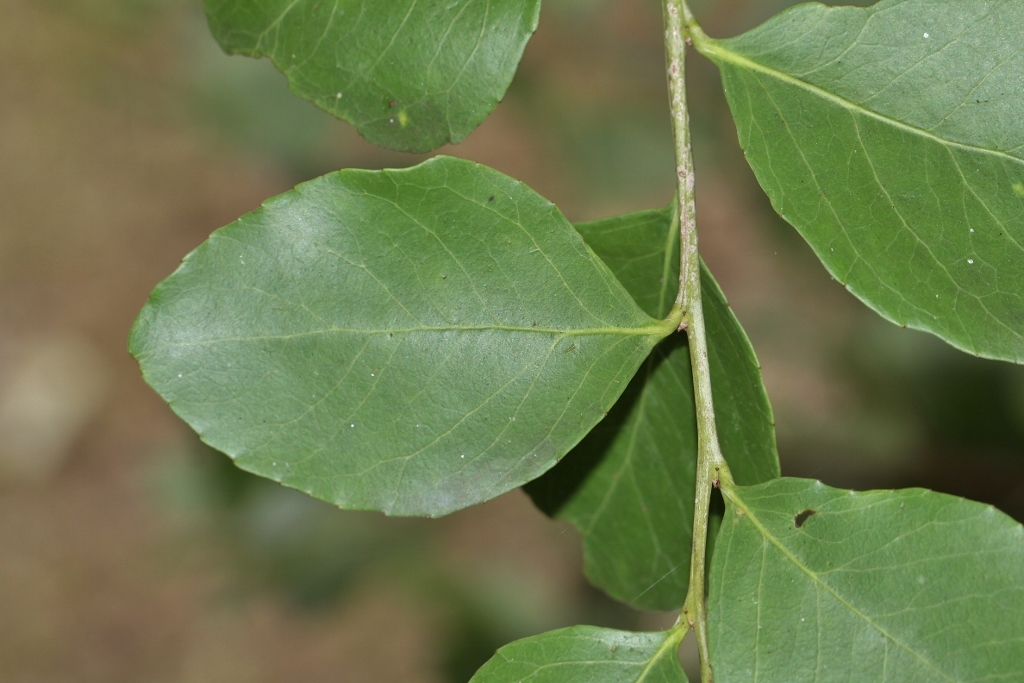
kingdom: Plantae
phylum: Tracheophyta
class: Magnoliopsida
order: Celastrales
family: Celastraceae
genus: Gymnosporia
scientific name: Gymnosporia undata
